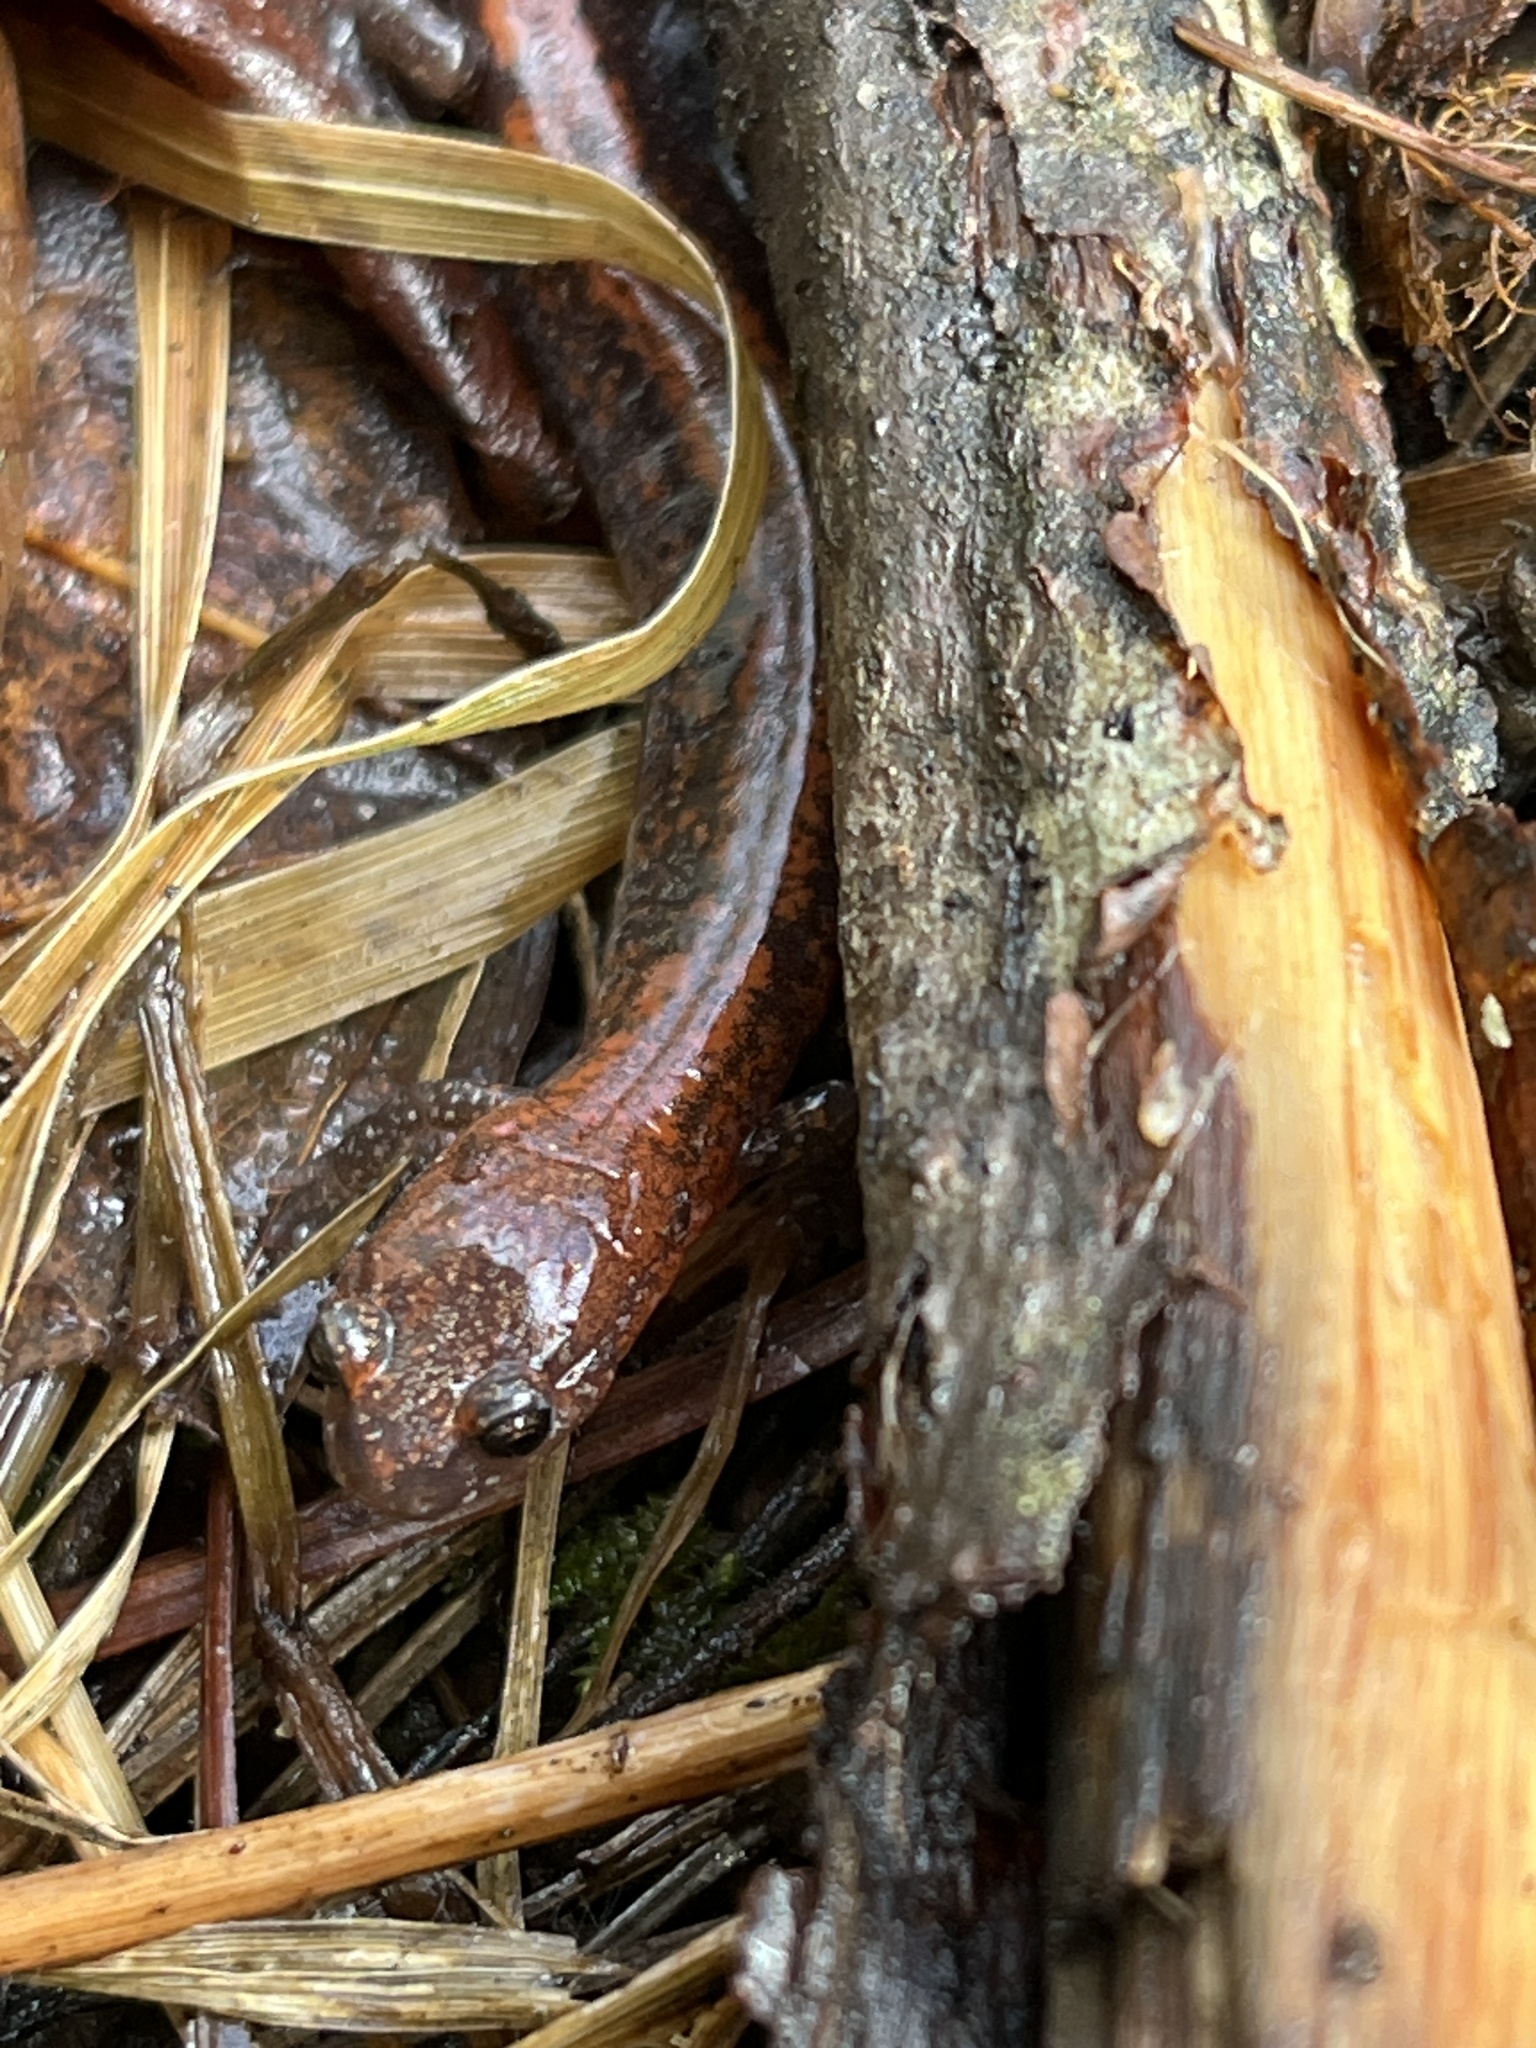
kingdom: Animalia
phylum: Chordata
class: Amphibia
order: Caudata
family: Plethodontidae
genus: Plethodon
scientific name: Plethodon cinereus
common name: Redback salamander
